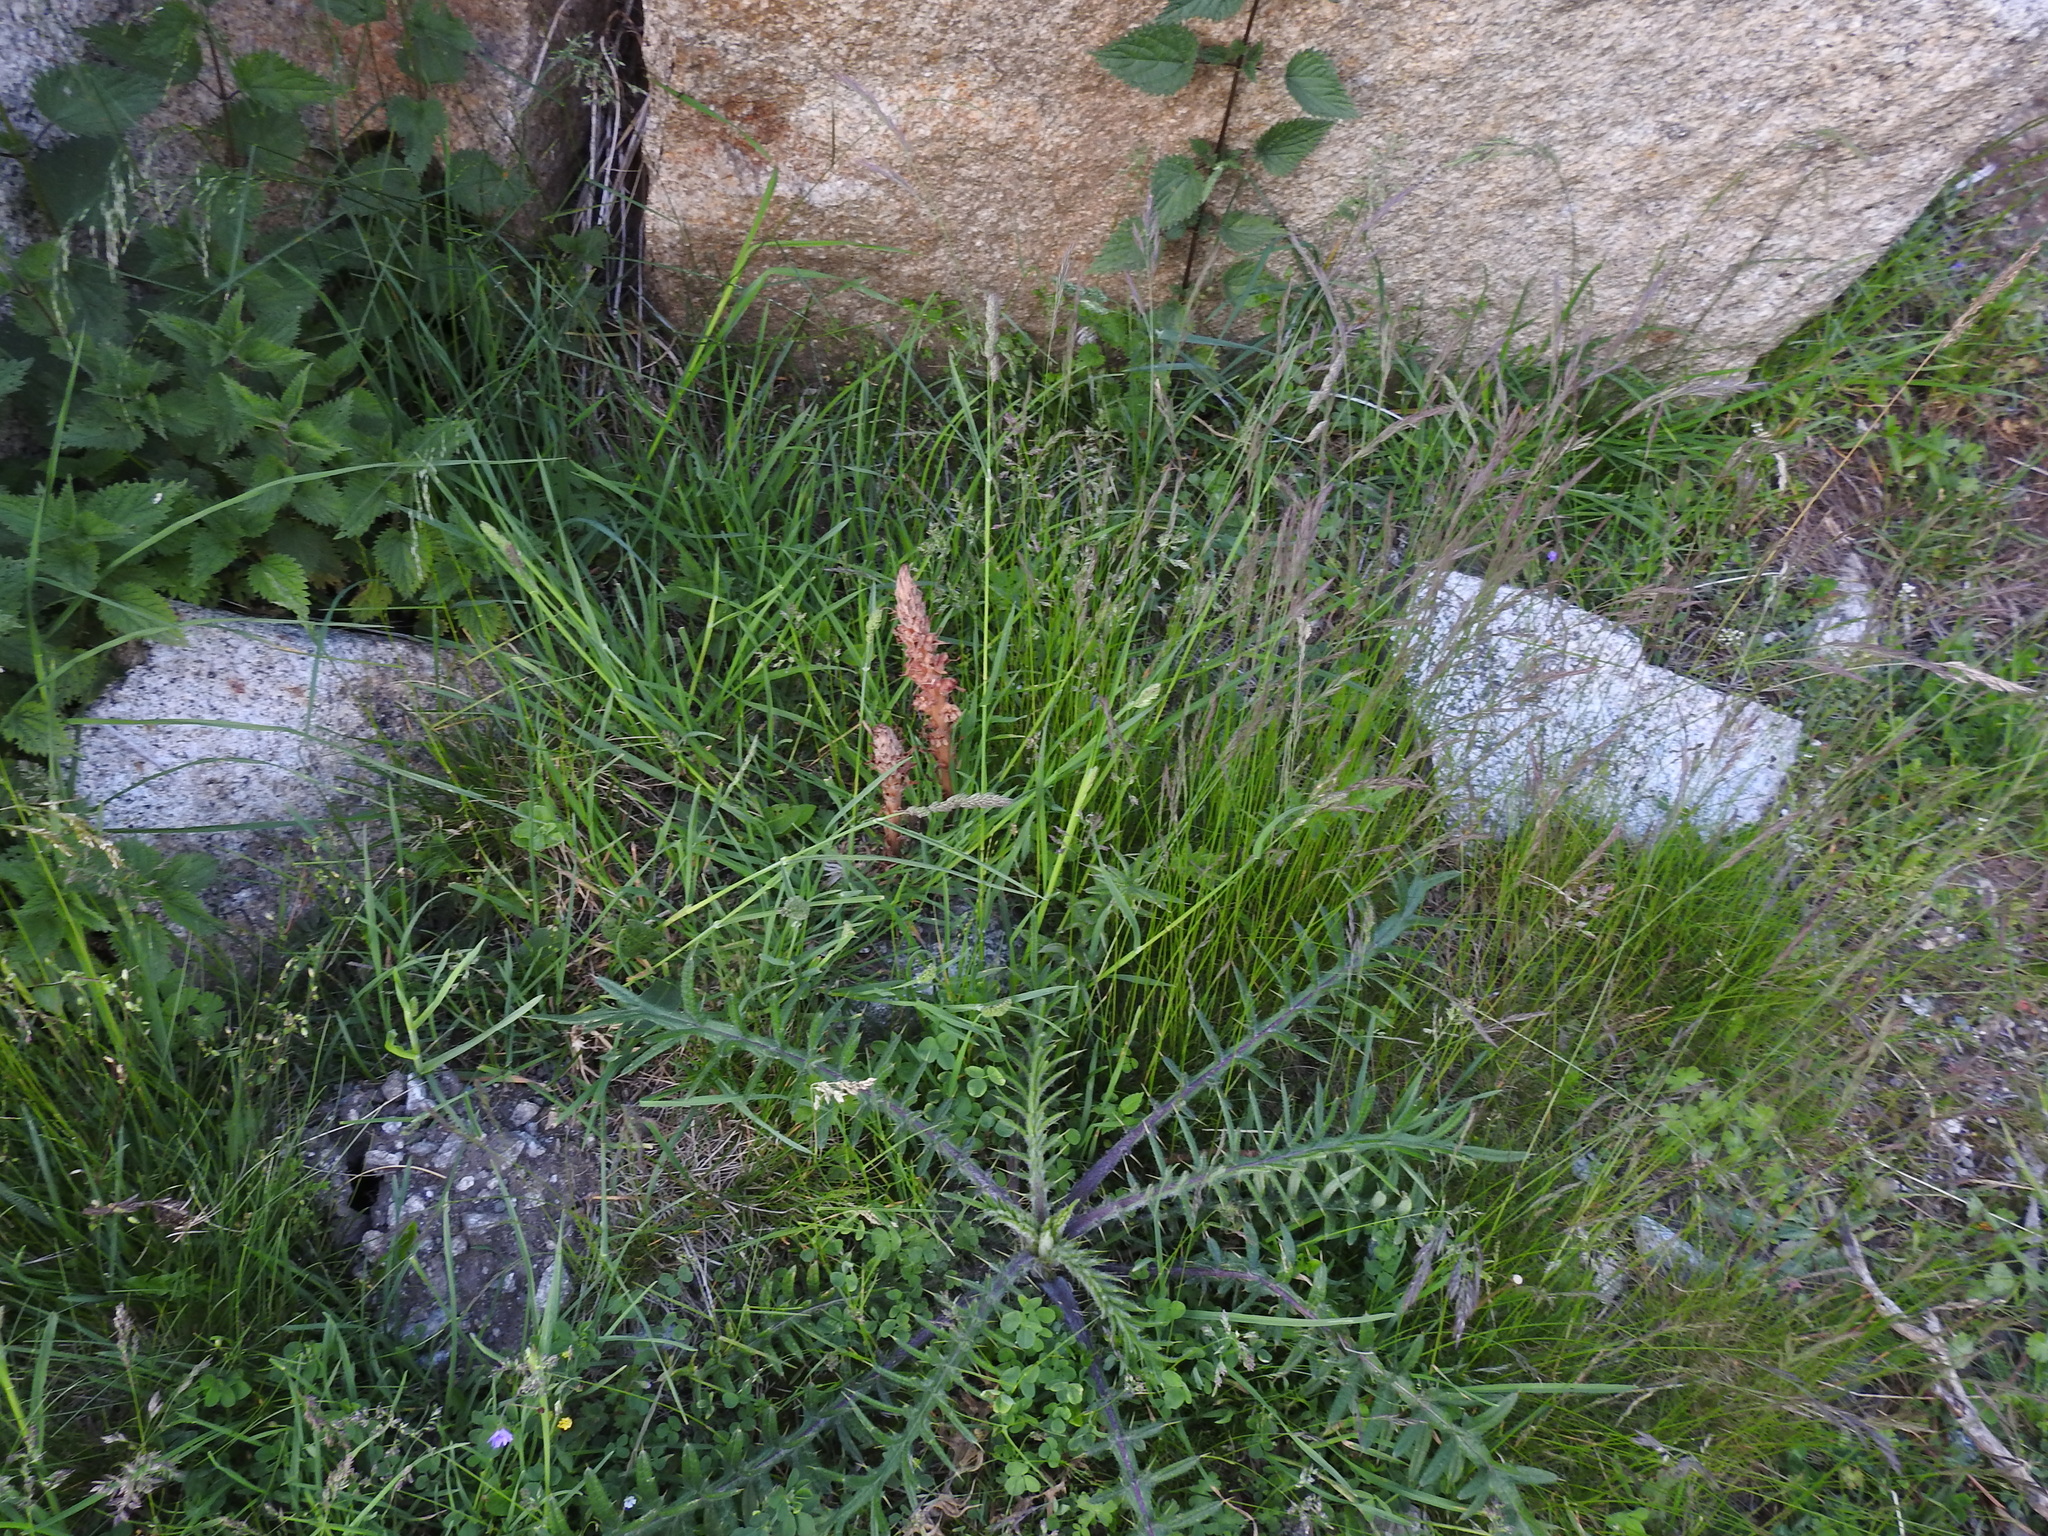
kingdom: Plantae
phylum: Tracheophyta
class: Magnoliopsida
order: Lamiales
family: Orobanchaceae
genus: Orobanche
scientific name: Orobanche rapum-genistae
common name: Greater broomrape
